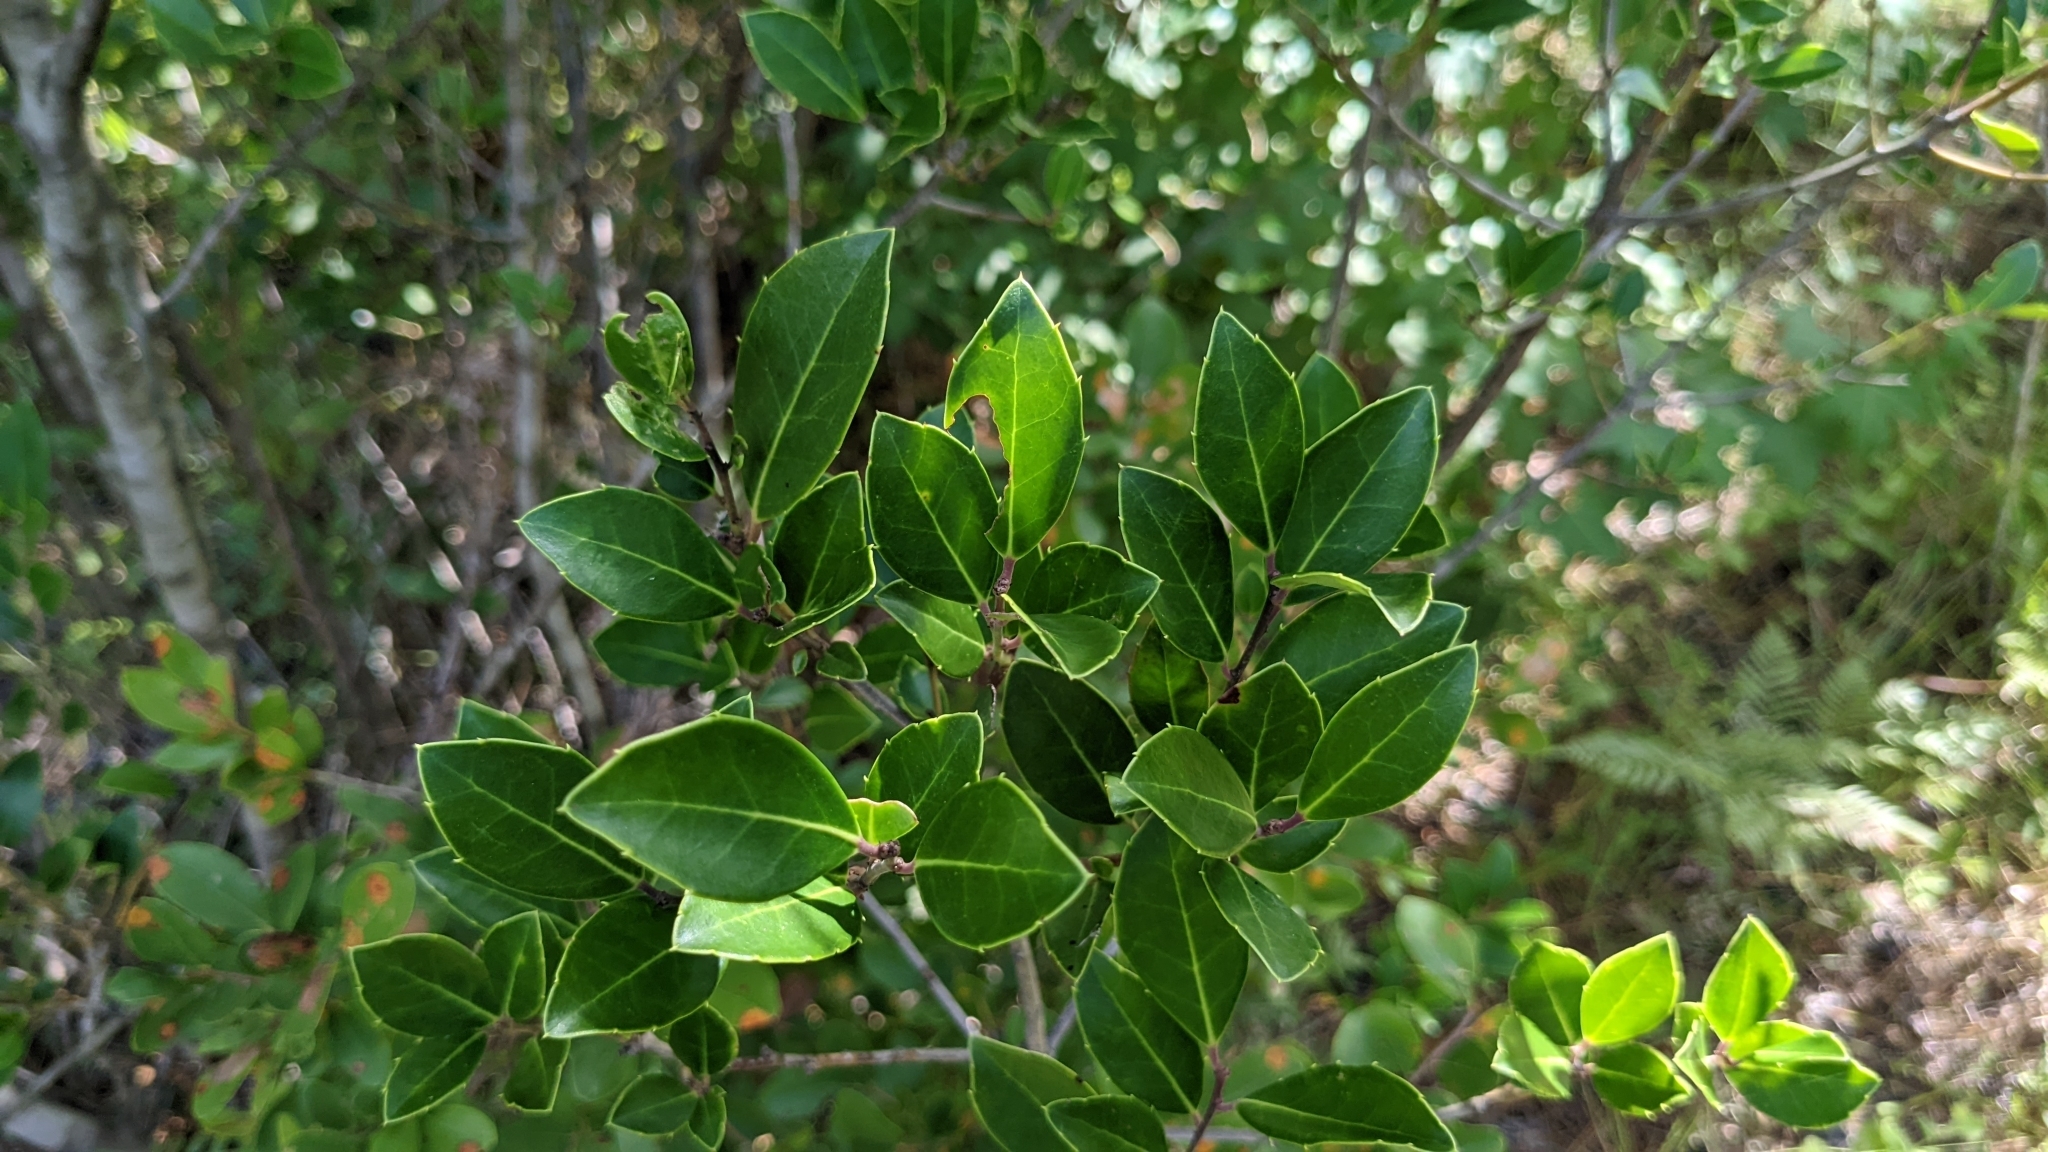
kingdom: Plantae
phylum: Tracheophyta
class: Magnoliopsida
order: Aquifoliales
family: Aquifoliaceae
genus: Ilex
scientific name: Ilex coriacea
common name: Sweet gallberry
